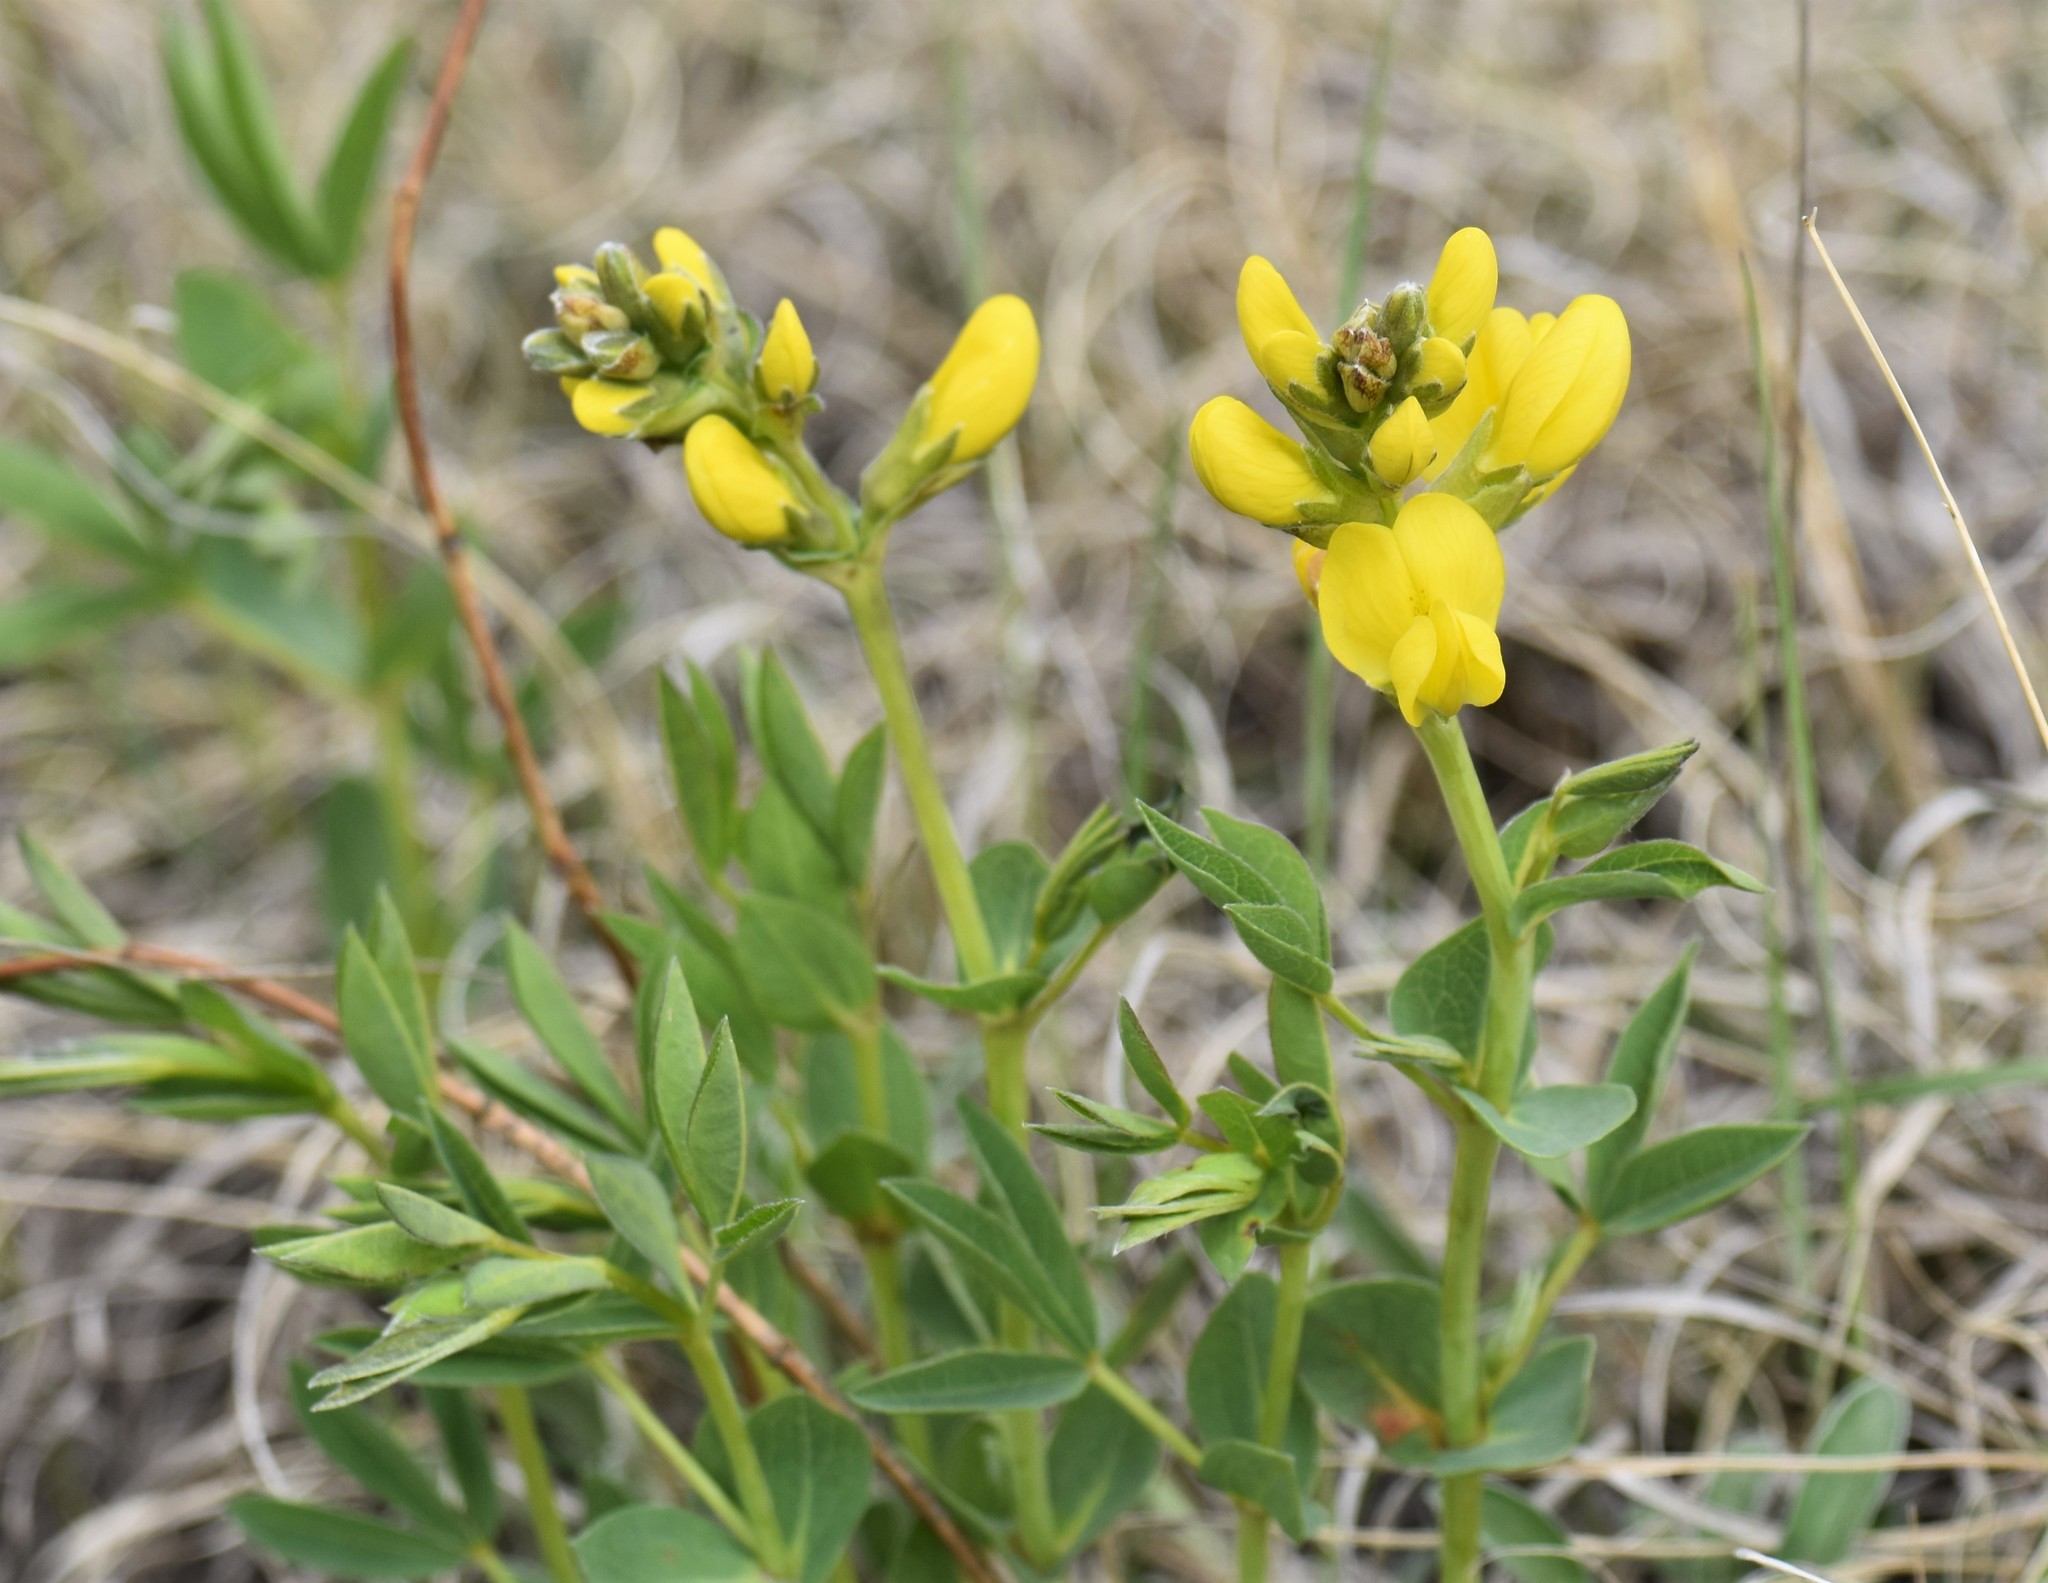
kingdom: Plantae
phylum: Tracheophyta
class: Magnoliopsida
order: Fabales
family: Fabaceae
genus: Thermopsis
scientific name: Thermopsis rhombifolia
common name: Circle-pod-pea
